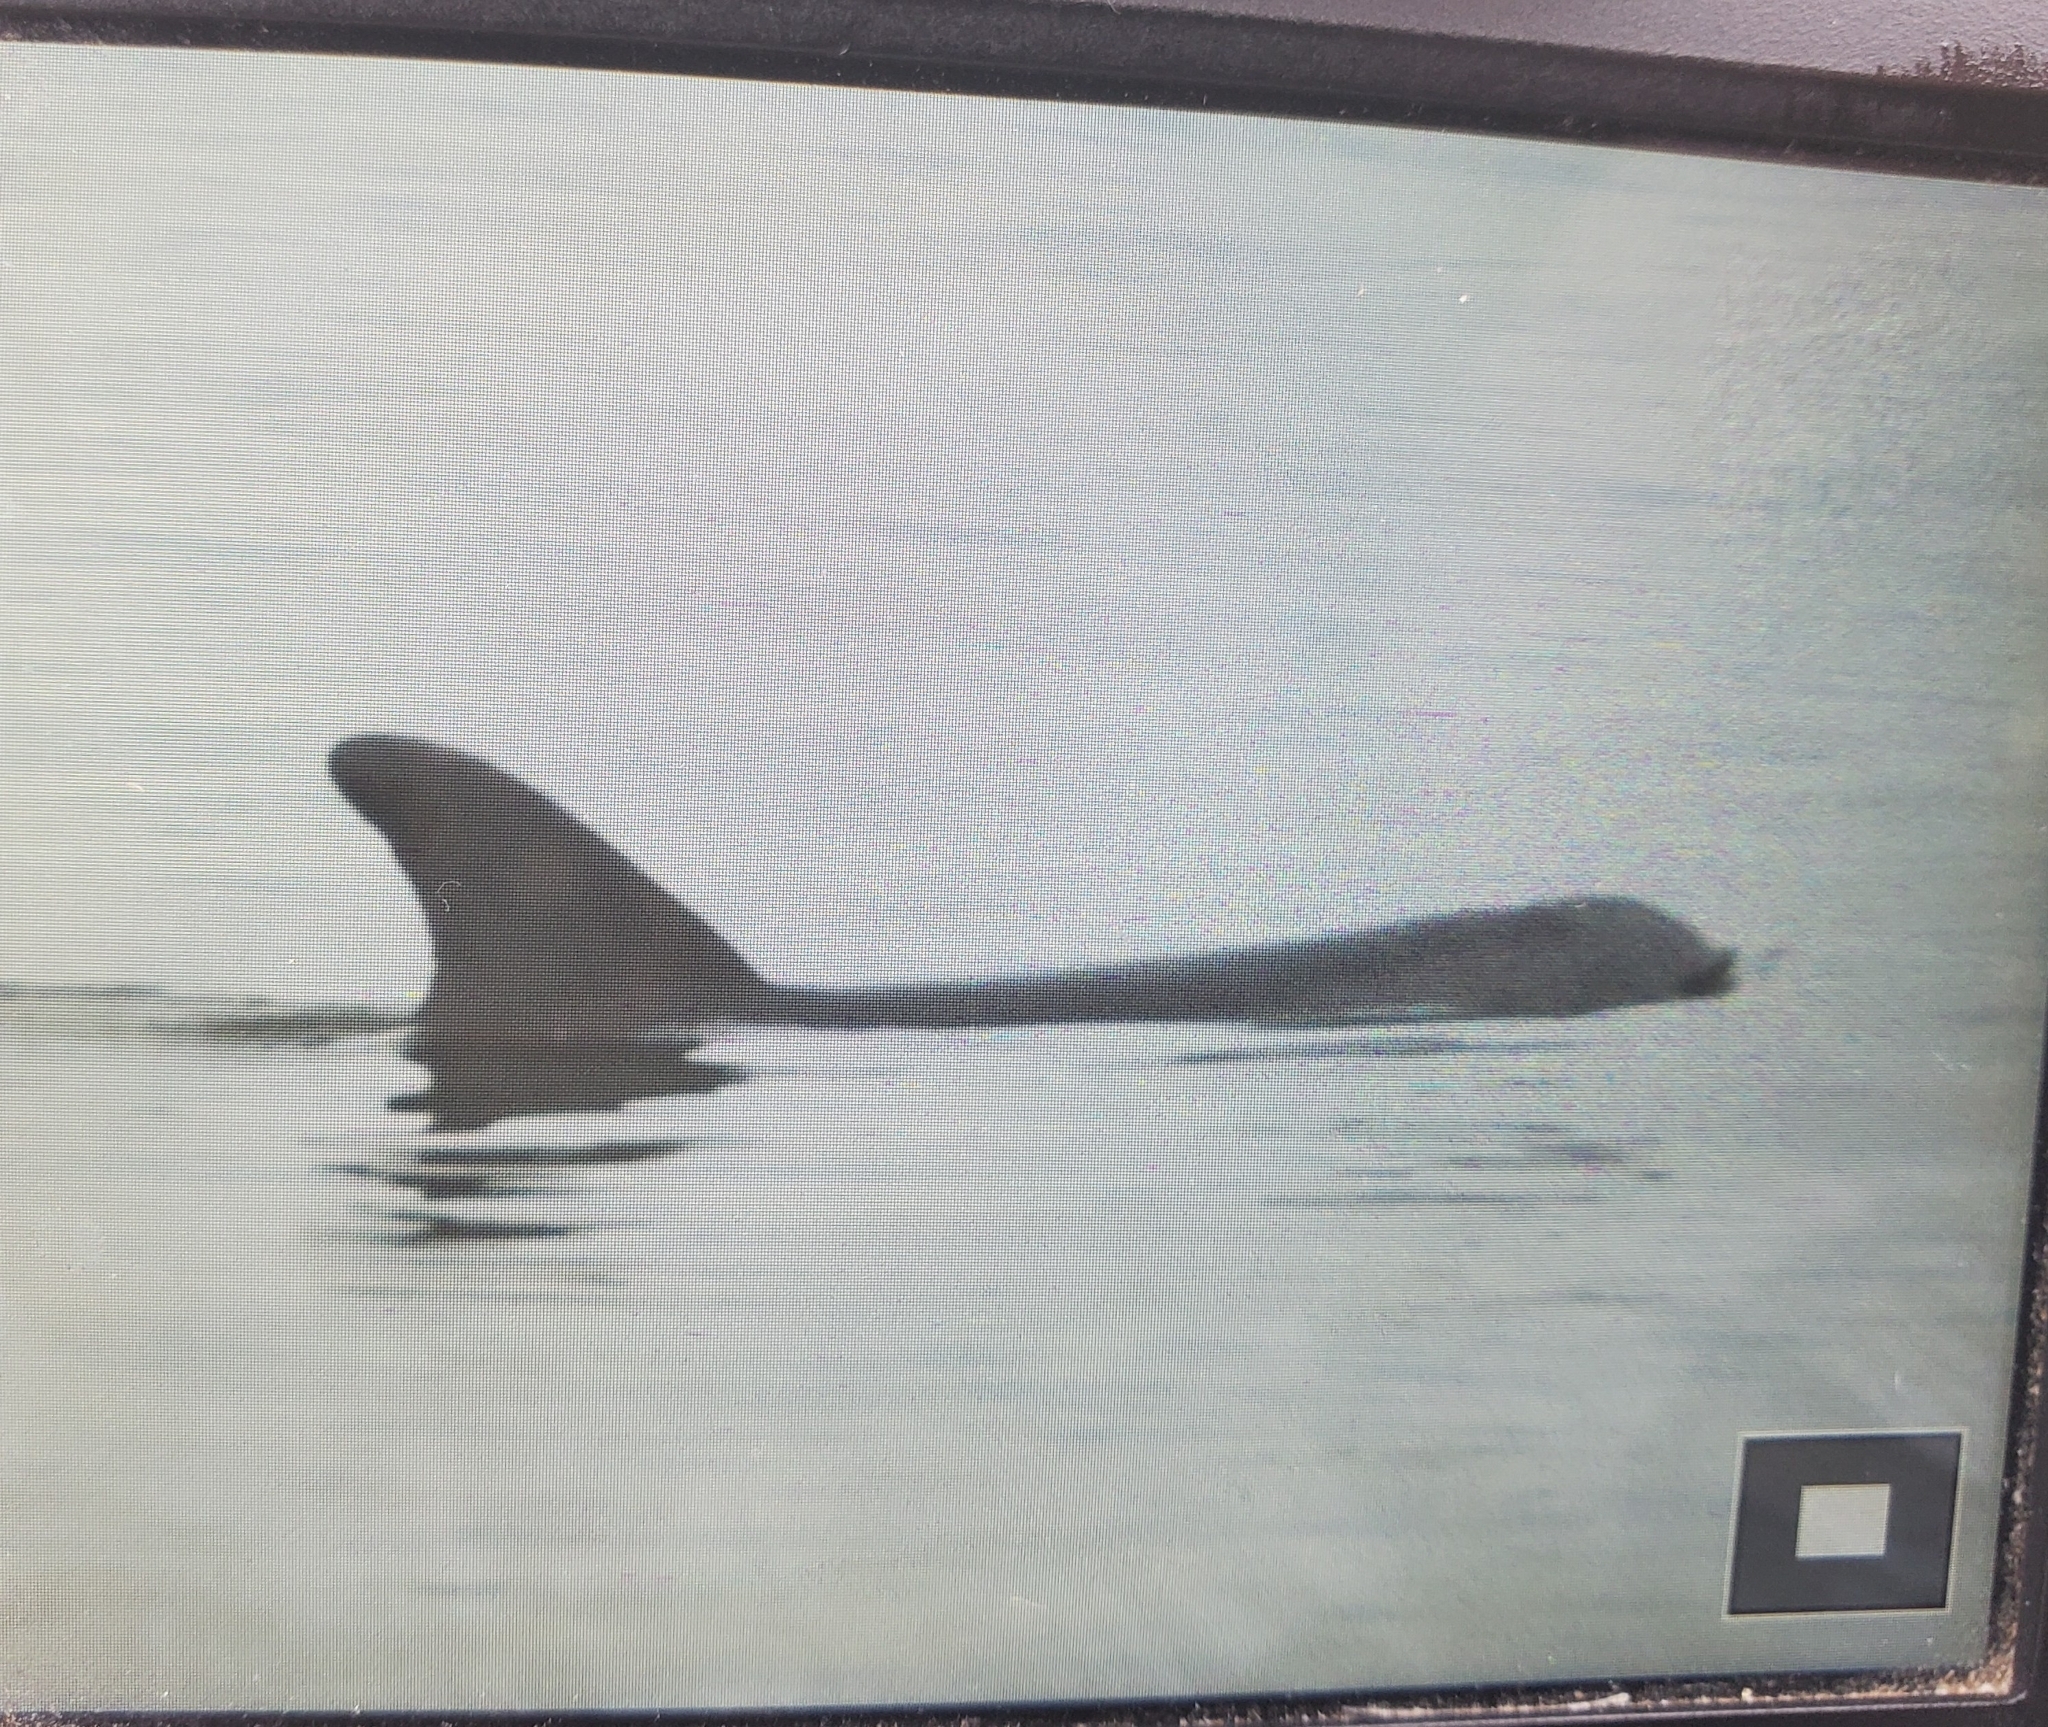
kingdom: Animalia
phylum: Chordata
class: Mammalia
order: Cetacea
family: Delphinidae
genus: Tursiops
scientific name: Tursiops truncatus
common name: Bottlenose dolphin
